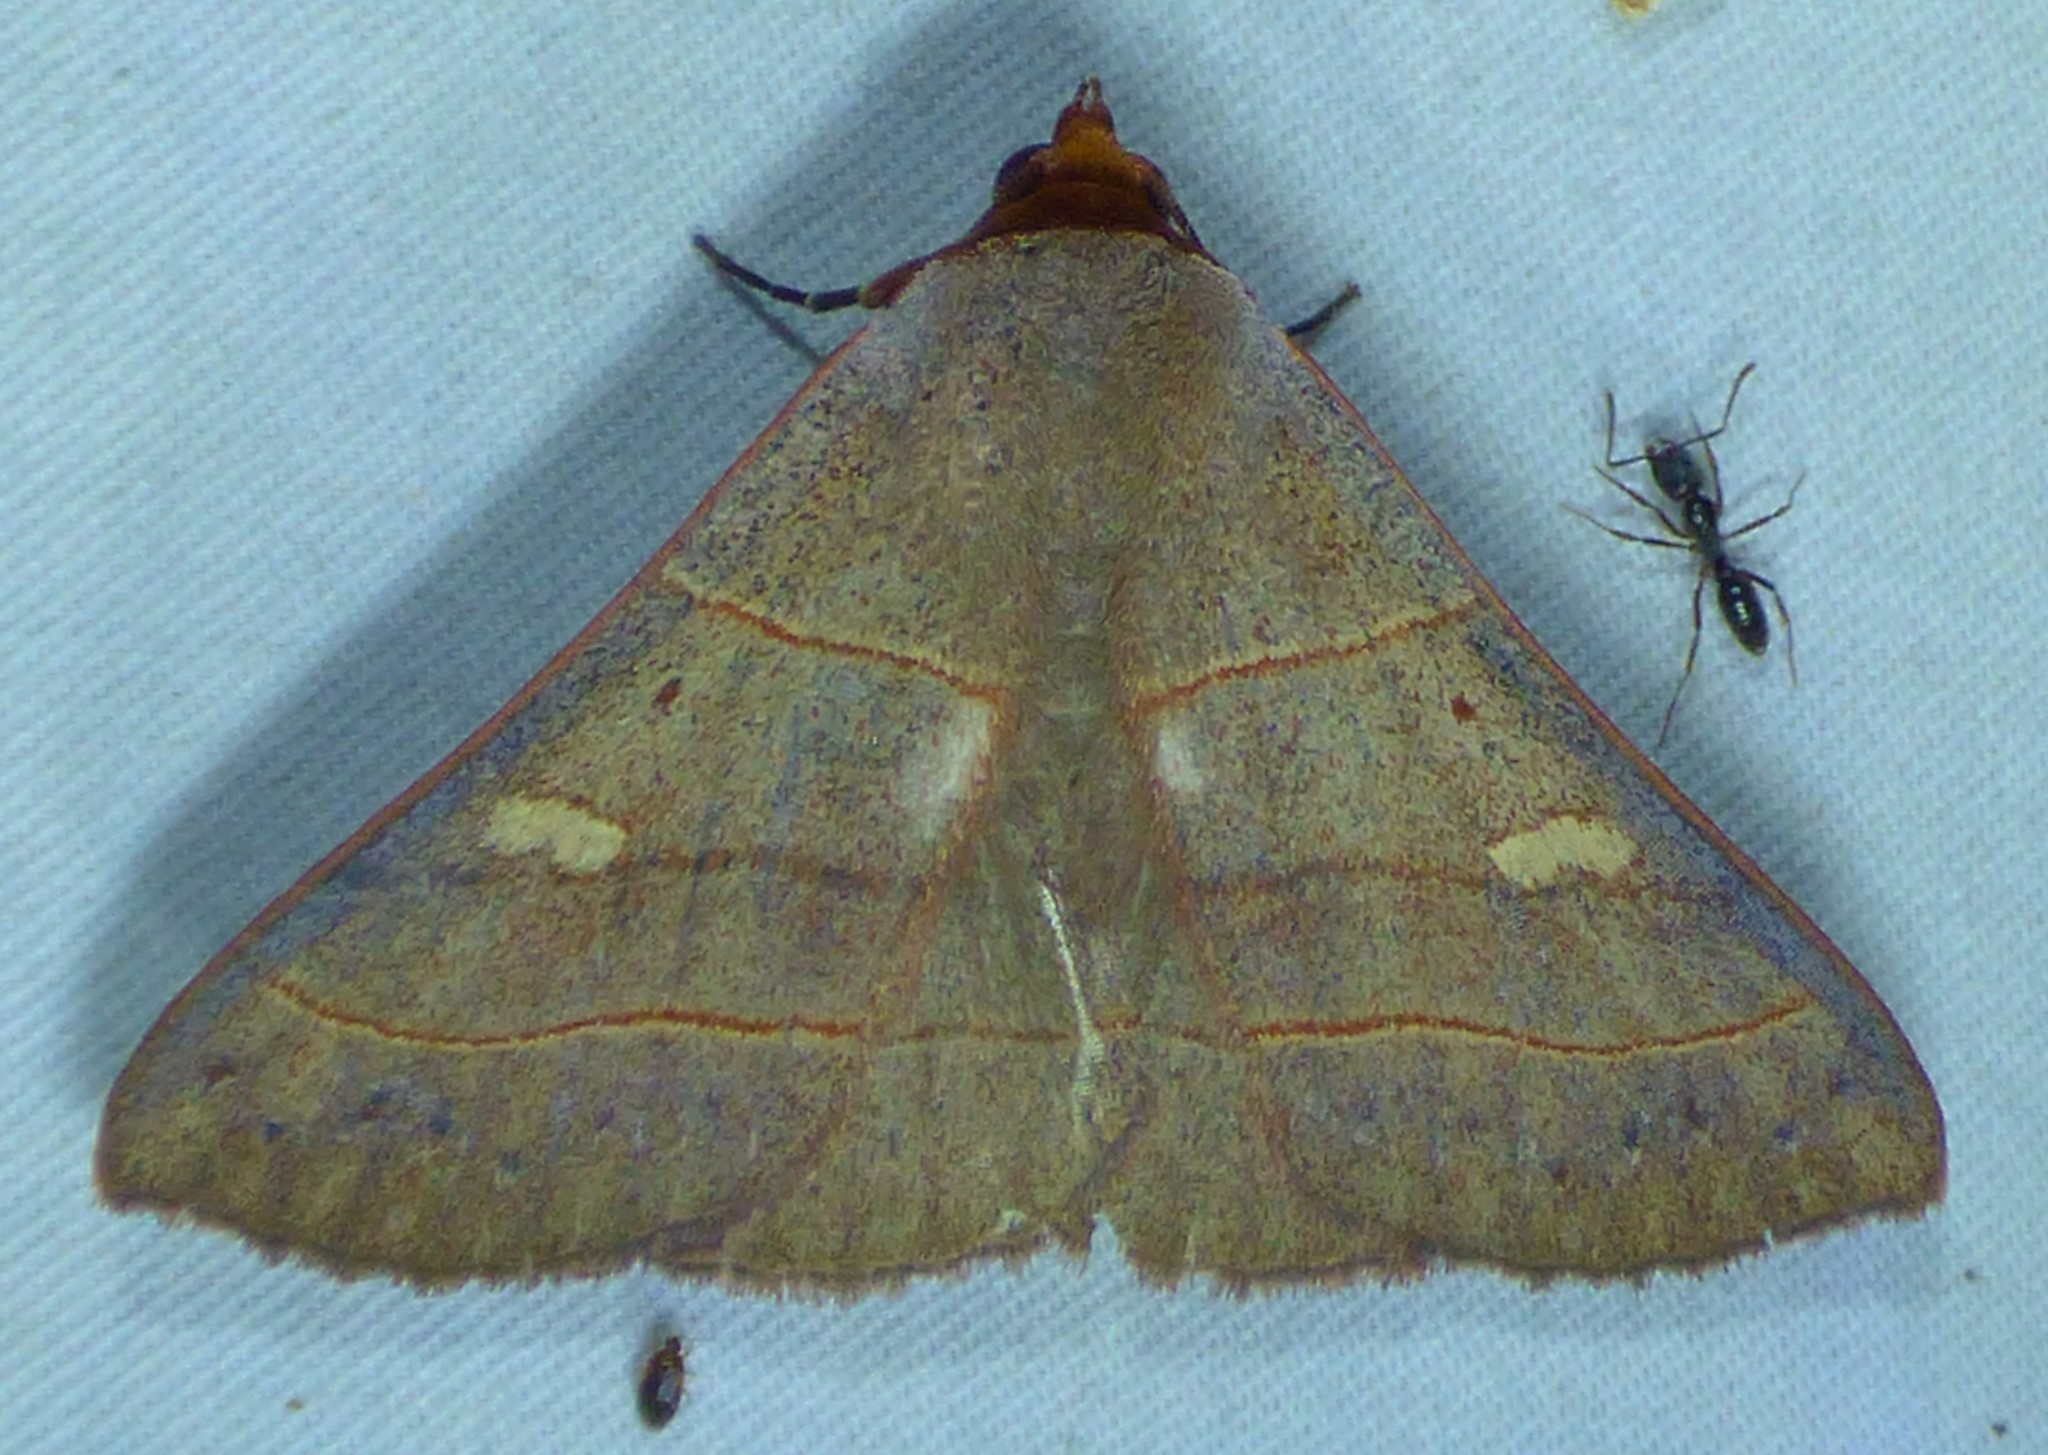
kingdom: Animalia
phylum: Arthropoda
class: Insecta
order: Lepidoptera
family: Erebidae
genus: Panopoda
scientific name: Panopoda rufimargo
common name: Red-lined panopoda moth
